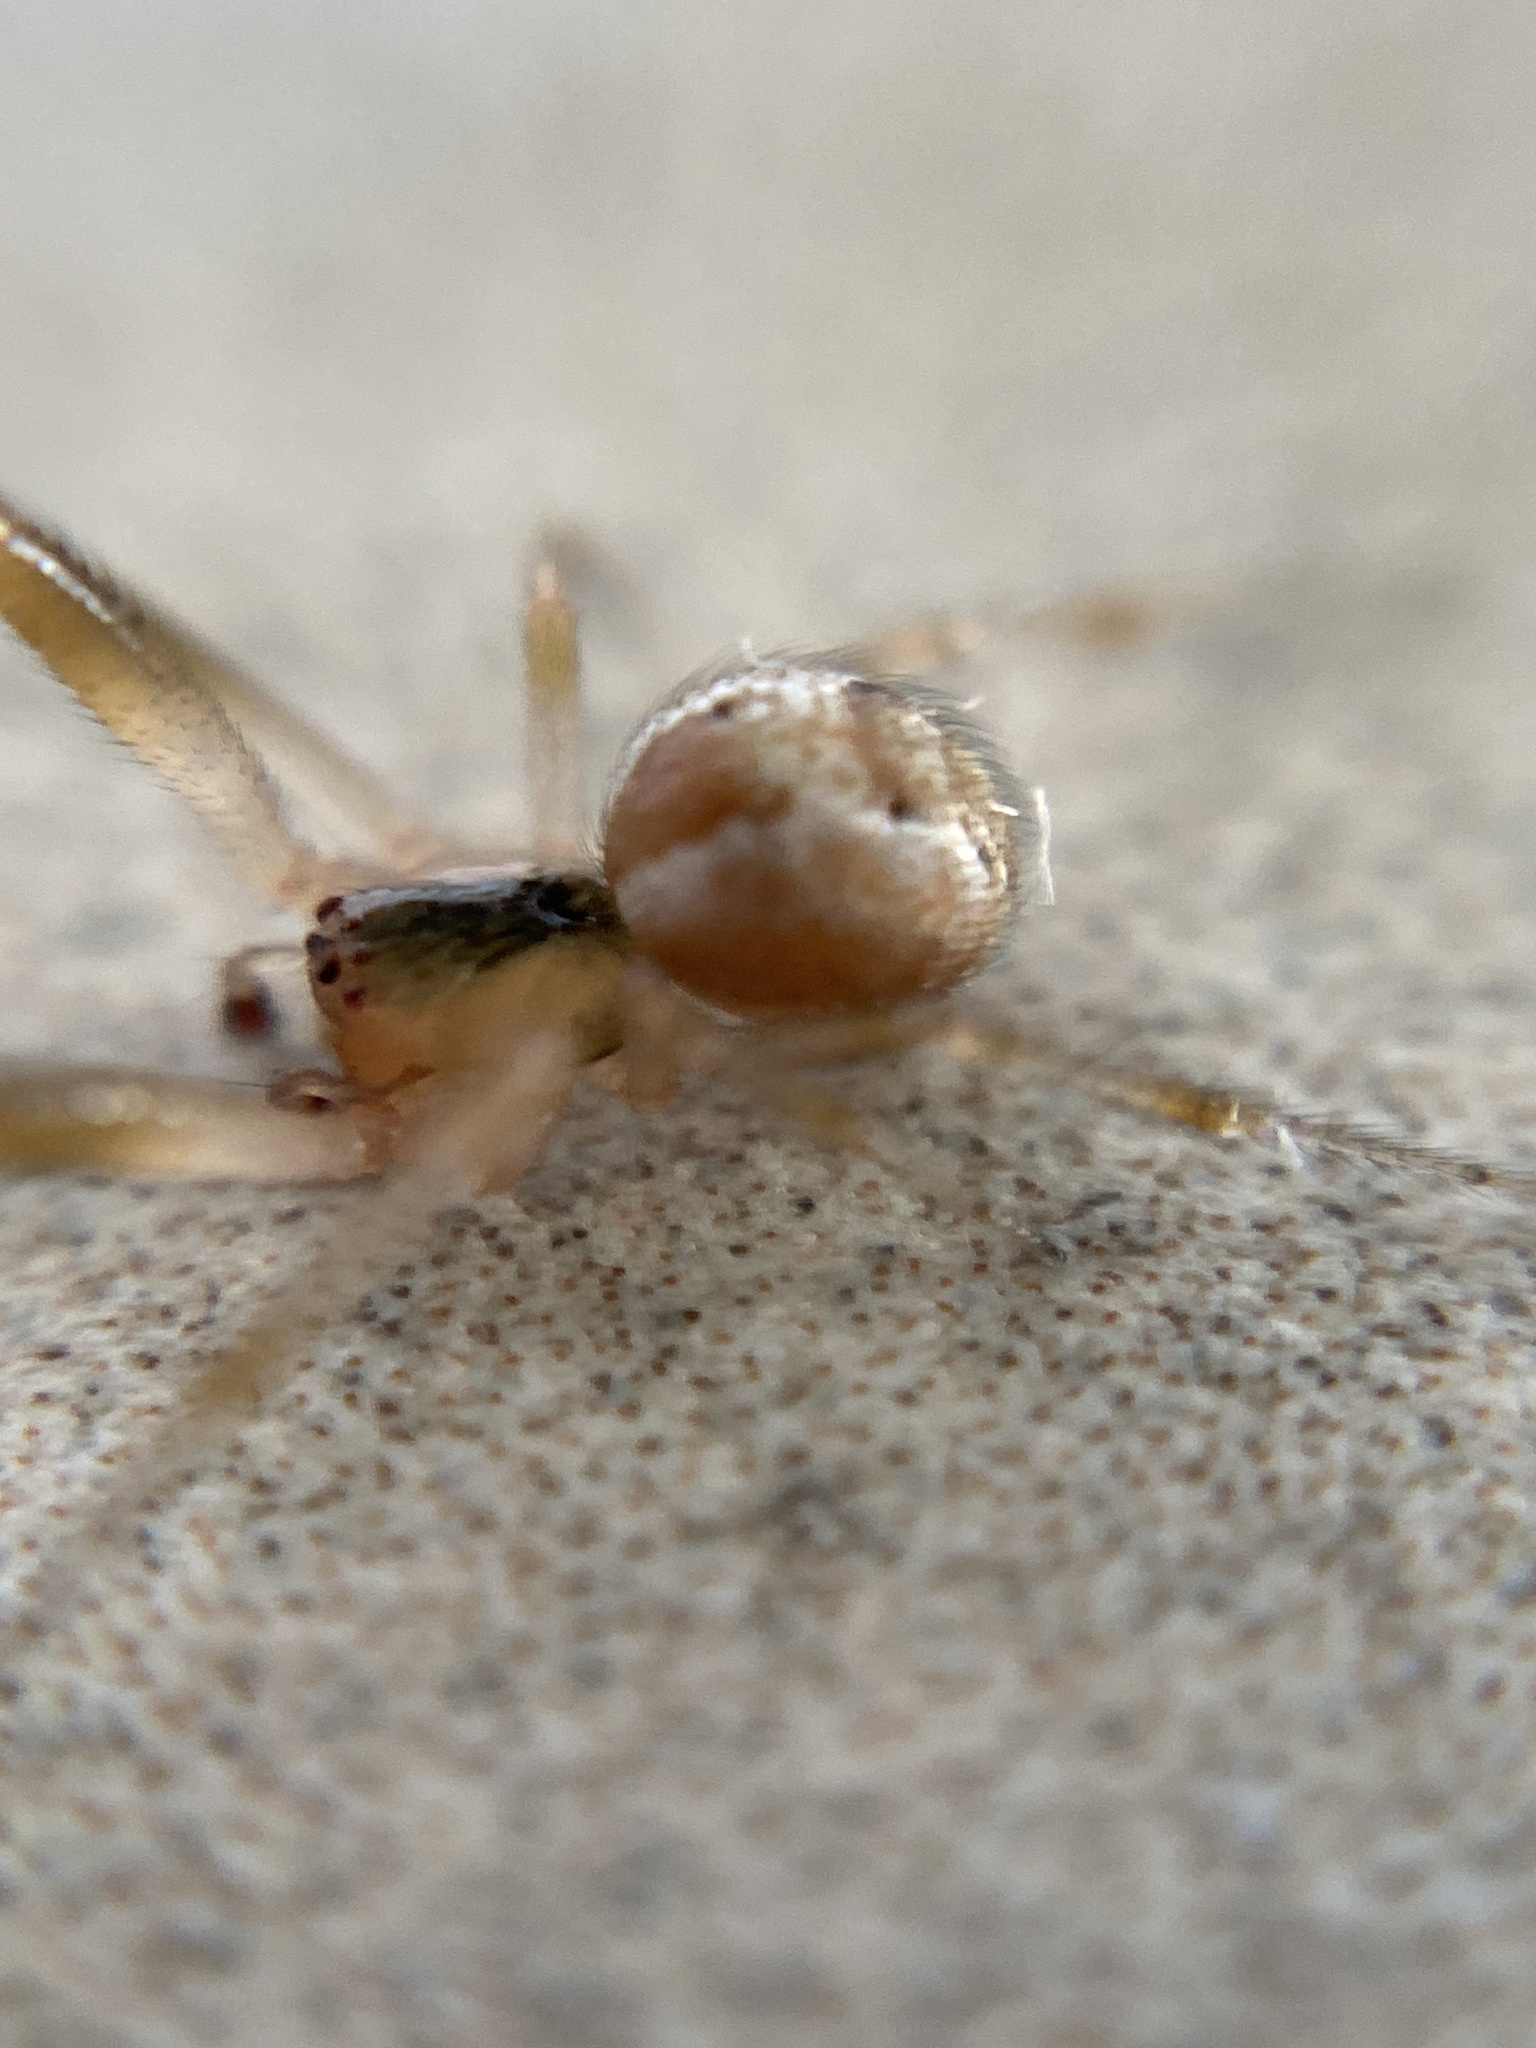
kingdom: Animalia
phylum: Arthropoda
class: Arachnida
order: Araneae
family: Araneidae
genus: Zygiella
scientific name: Zygiella atrica
